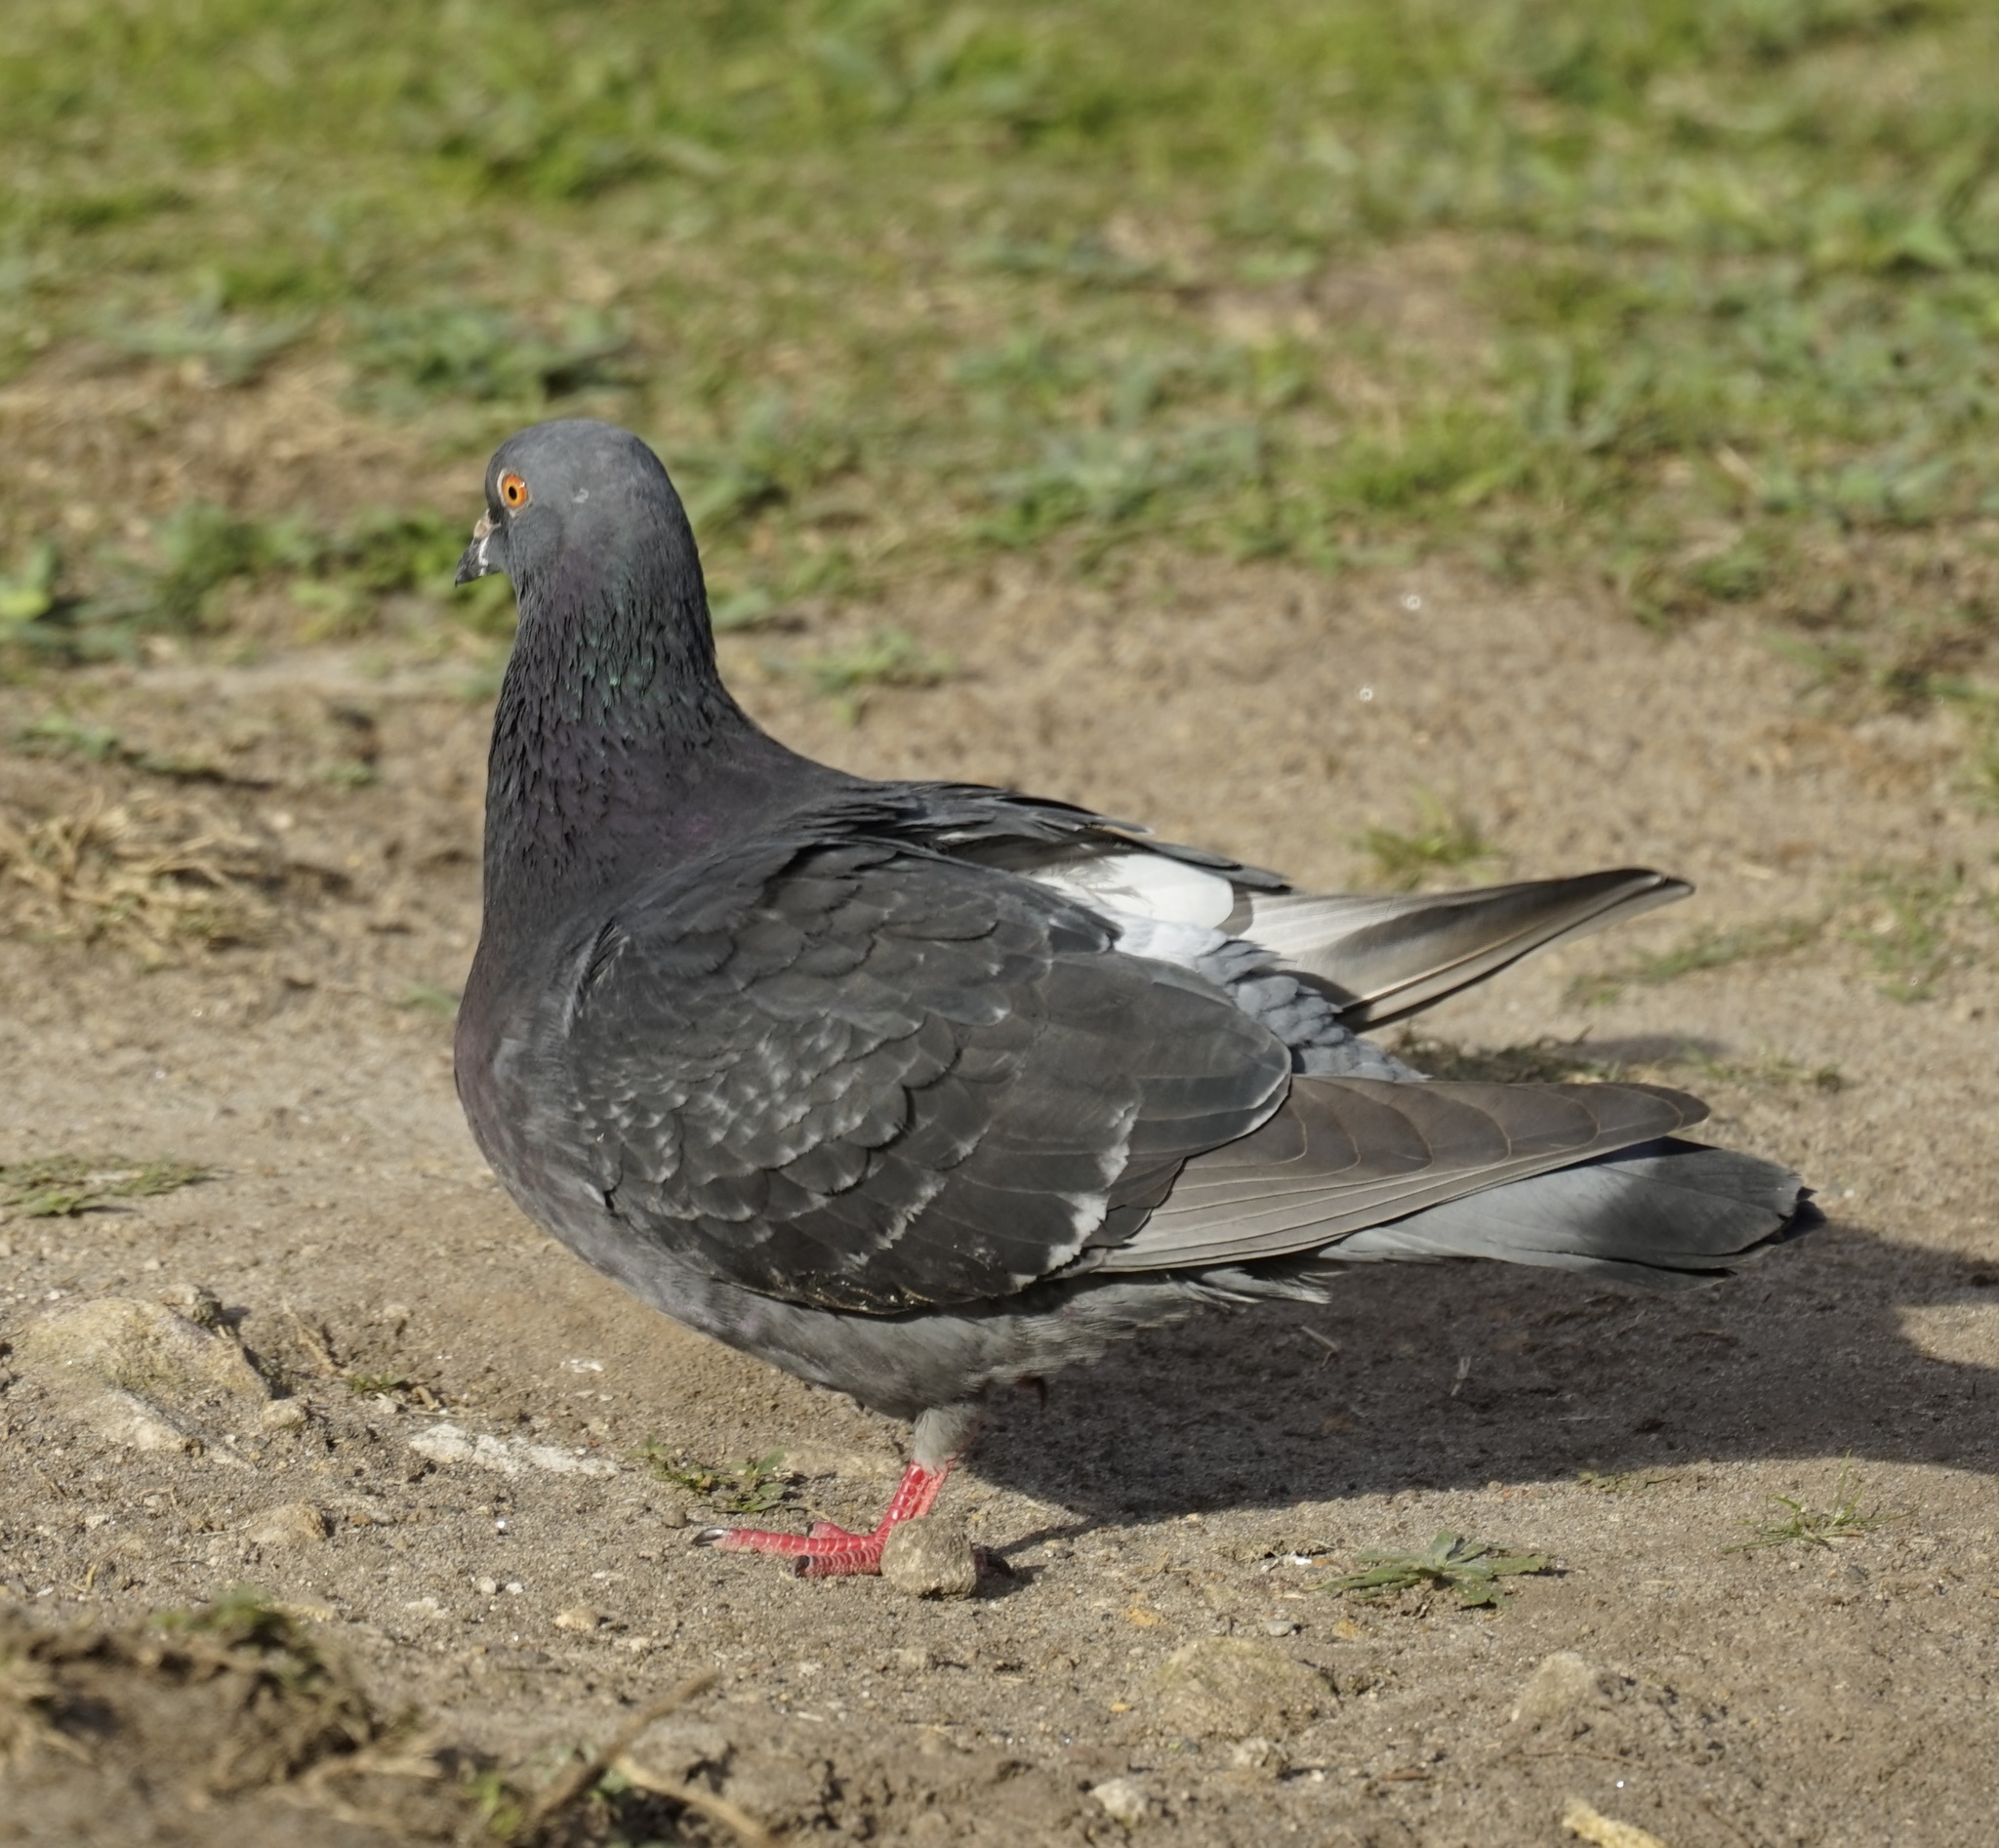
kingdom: Animalia
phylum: Chordata
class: Aves
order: Columbiformes
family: Columbidae
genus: Columba
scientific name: Columba livia
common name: Rock pigeon
